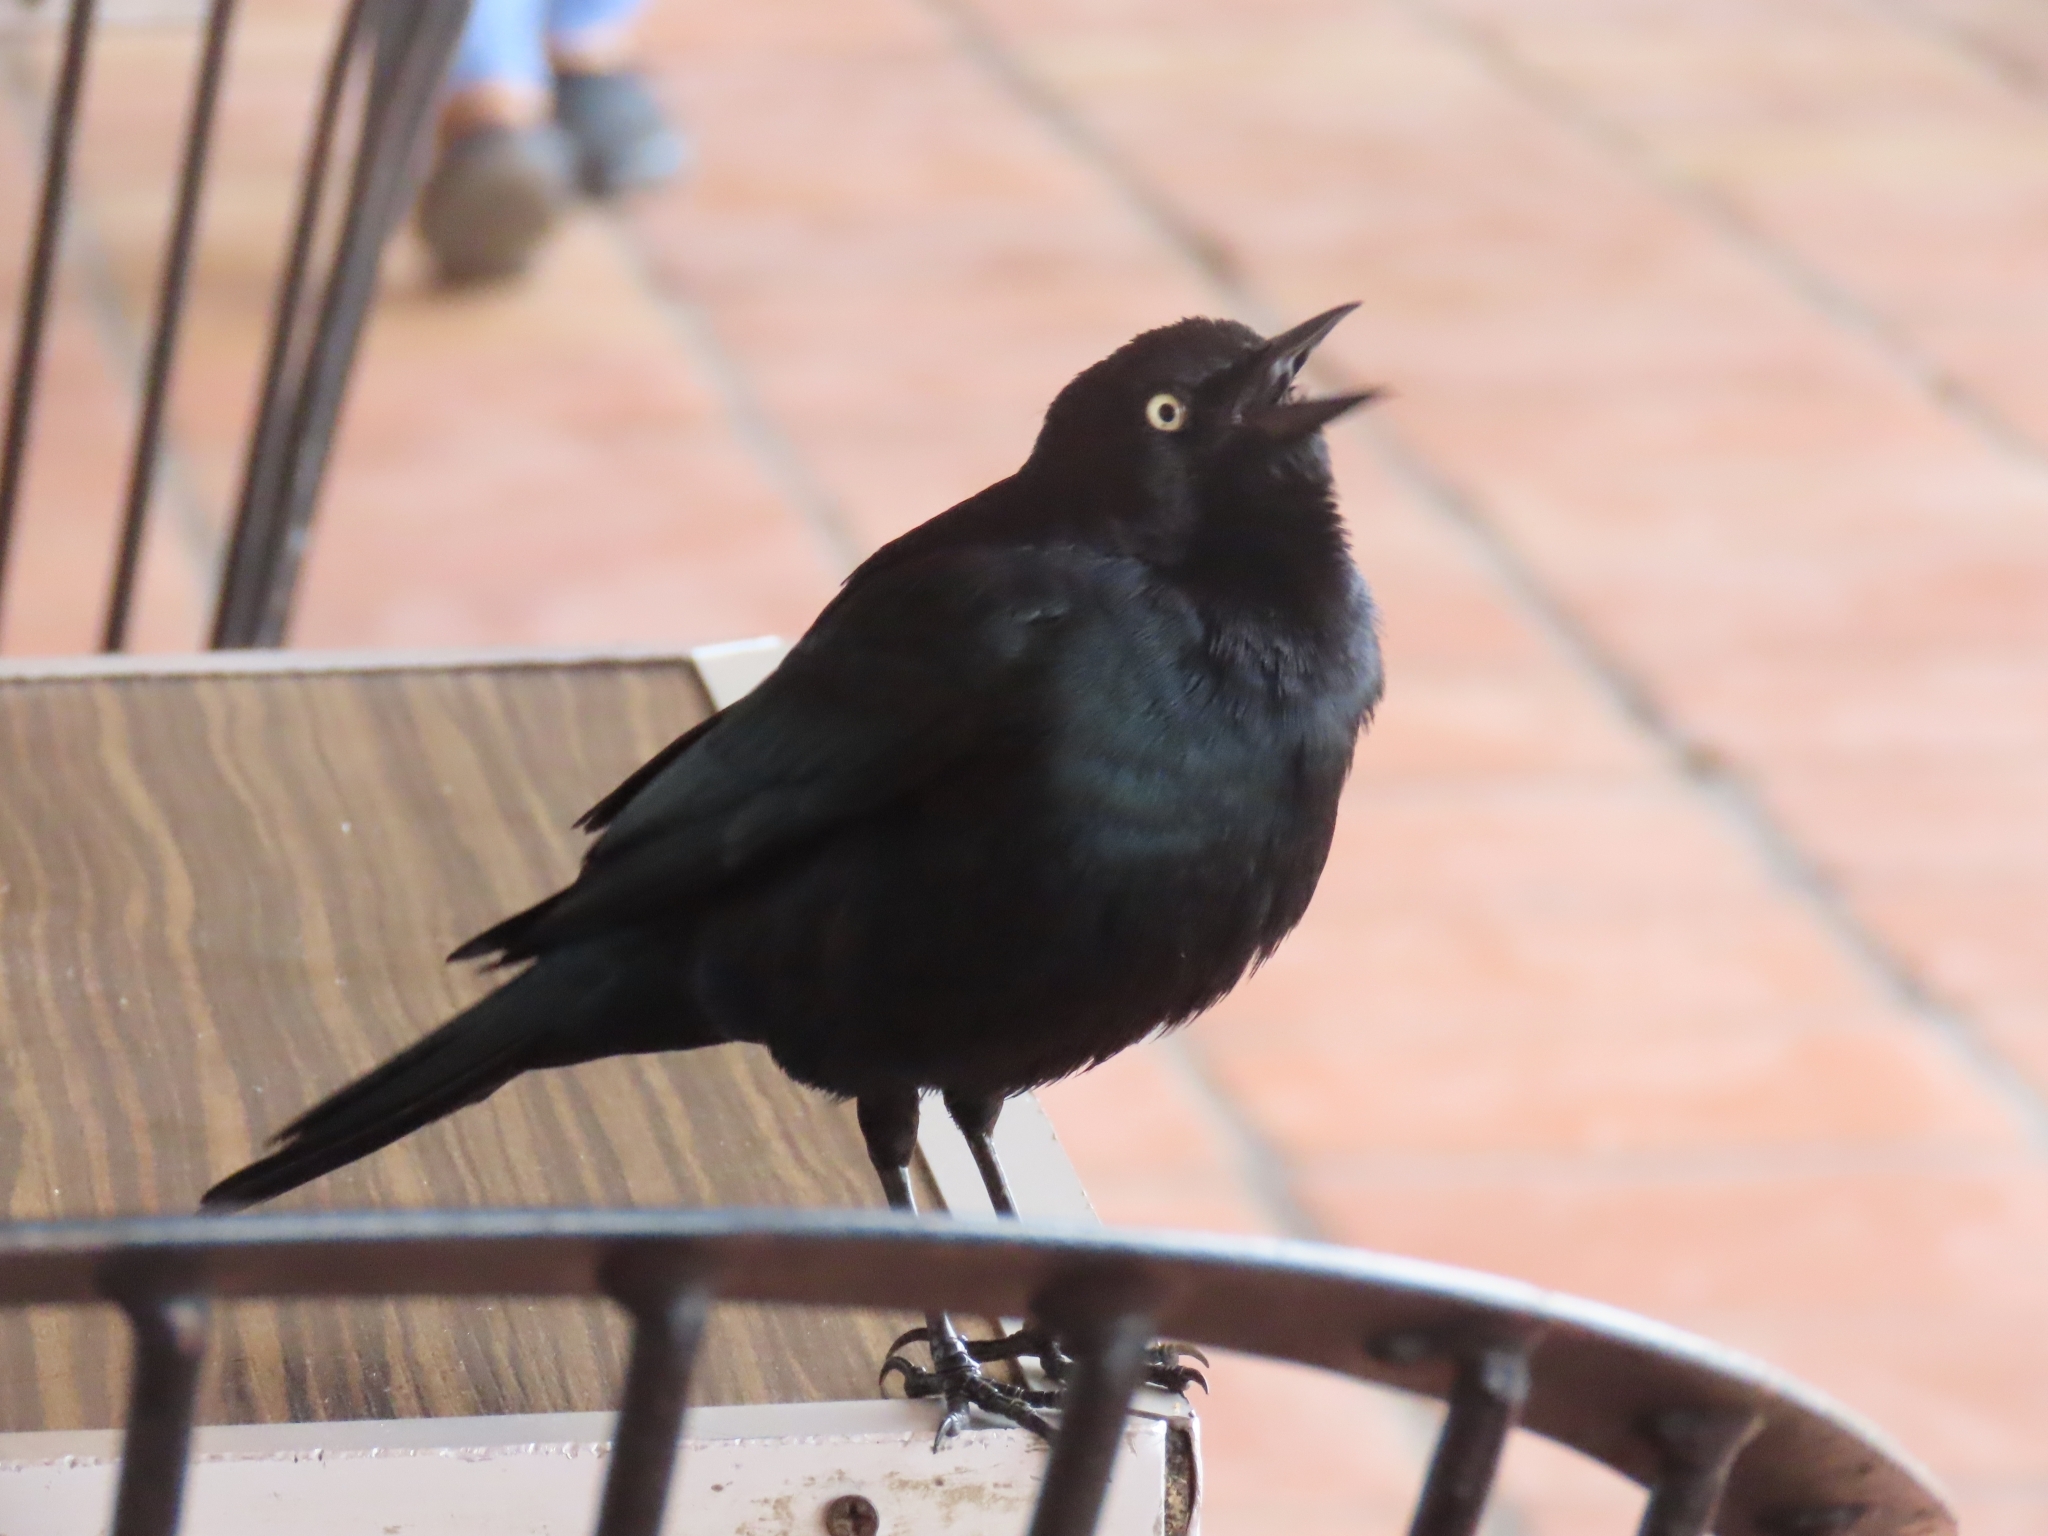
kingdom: Animalia
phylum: Chordata
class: Aves
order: Passeriformes
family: Icteridae
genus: Euphagus
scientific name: Euphagus cyanocephalus
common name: Brewer's blackbird
